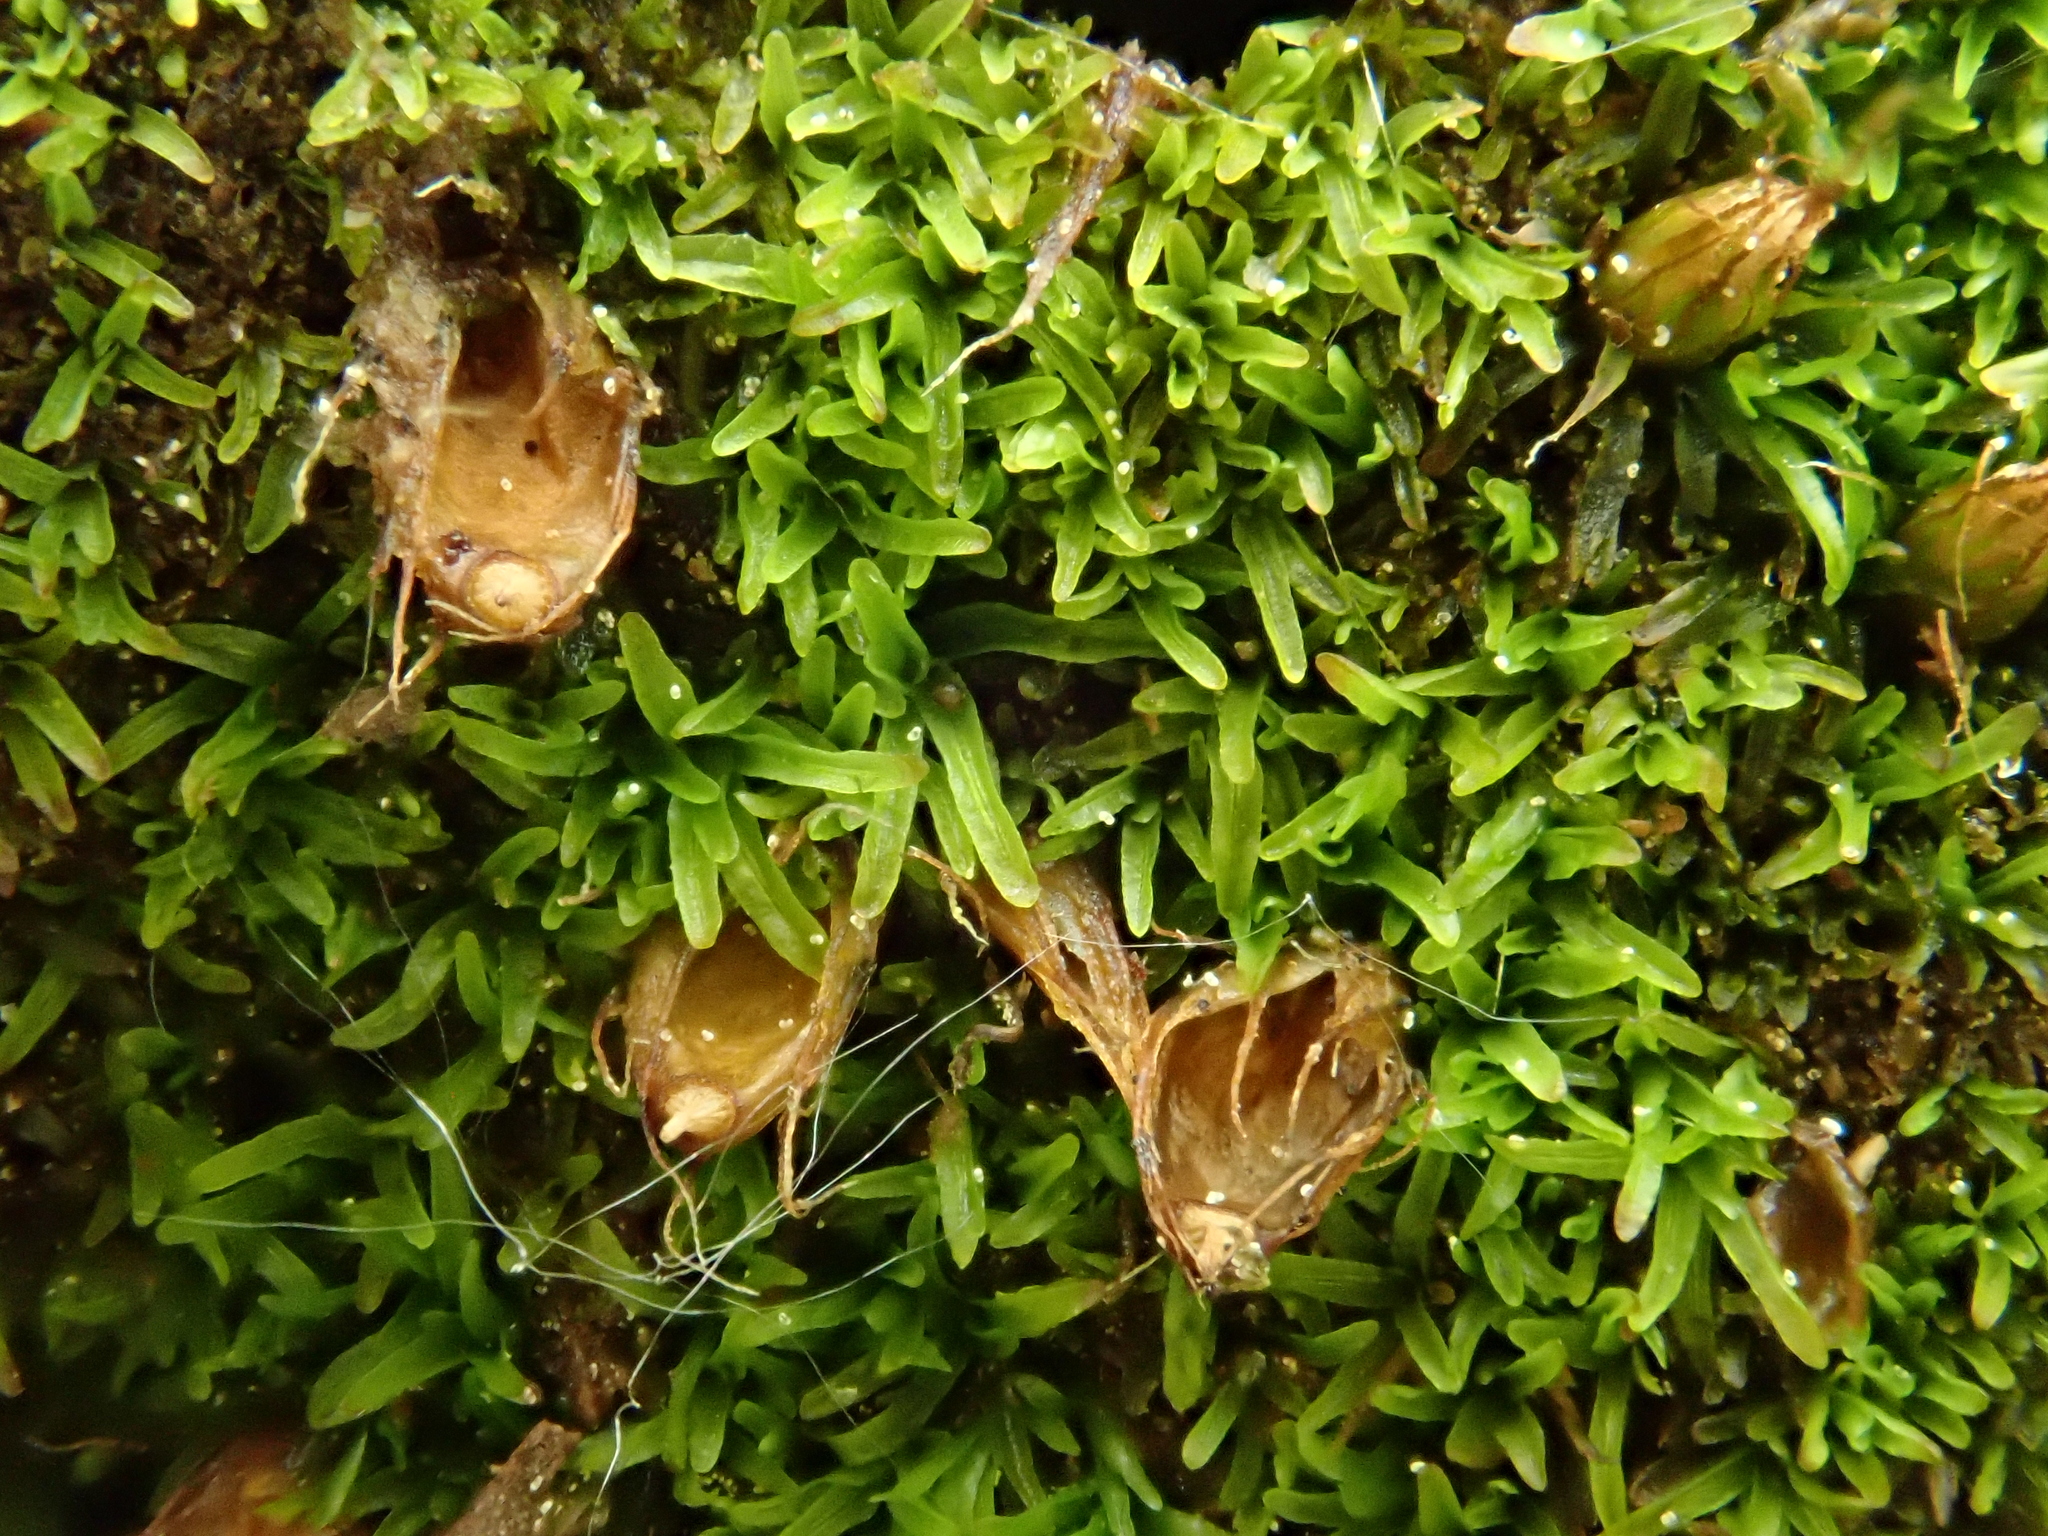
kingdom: Plantae
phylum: Bryophyta
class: Bryopsida
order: Diphysciales
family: Diphysciaceae
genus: Diphyscium
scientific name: Diphyscium foliosum
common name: Nut moss
